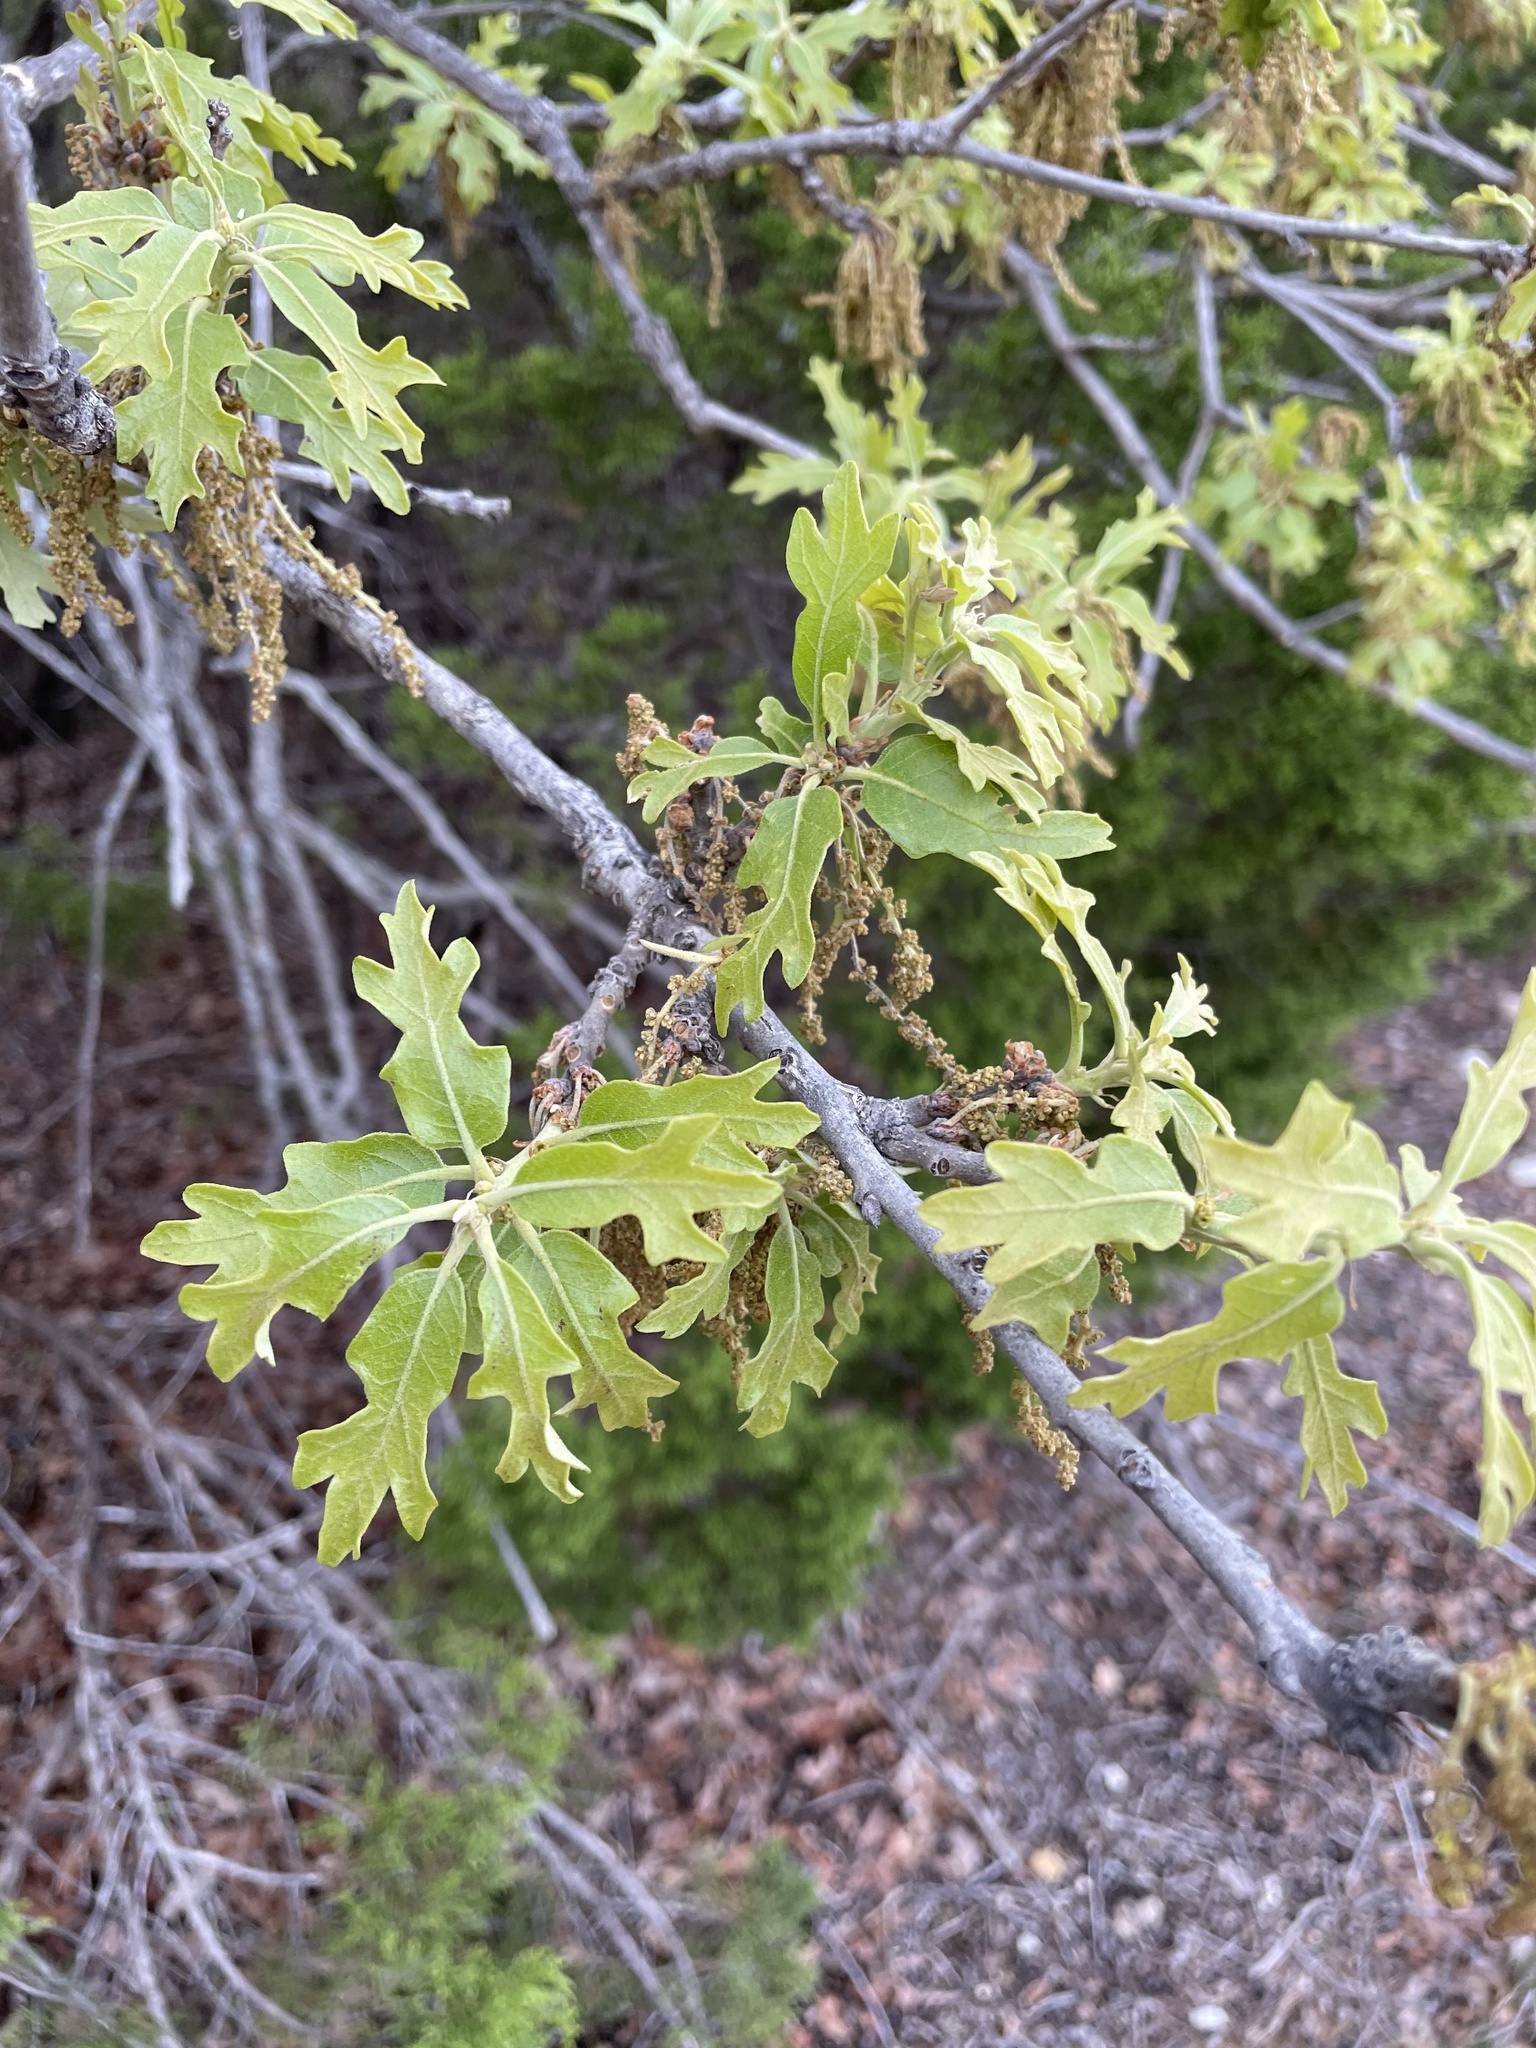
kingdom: Plantae
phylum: Tracheophyta
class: Magnoliopsida
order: Fagales
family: Fagaceae
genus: Quercus
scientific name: Quercus stellata
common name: Post oak
